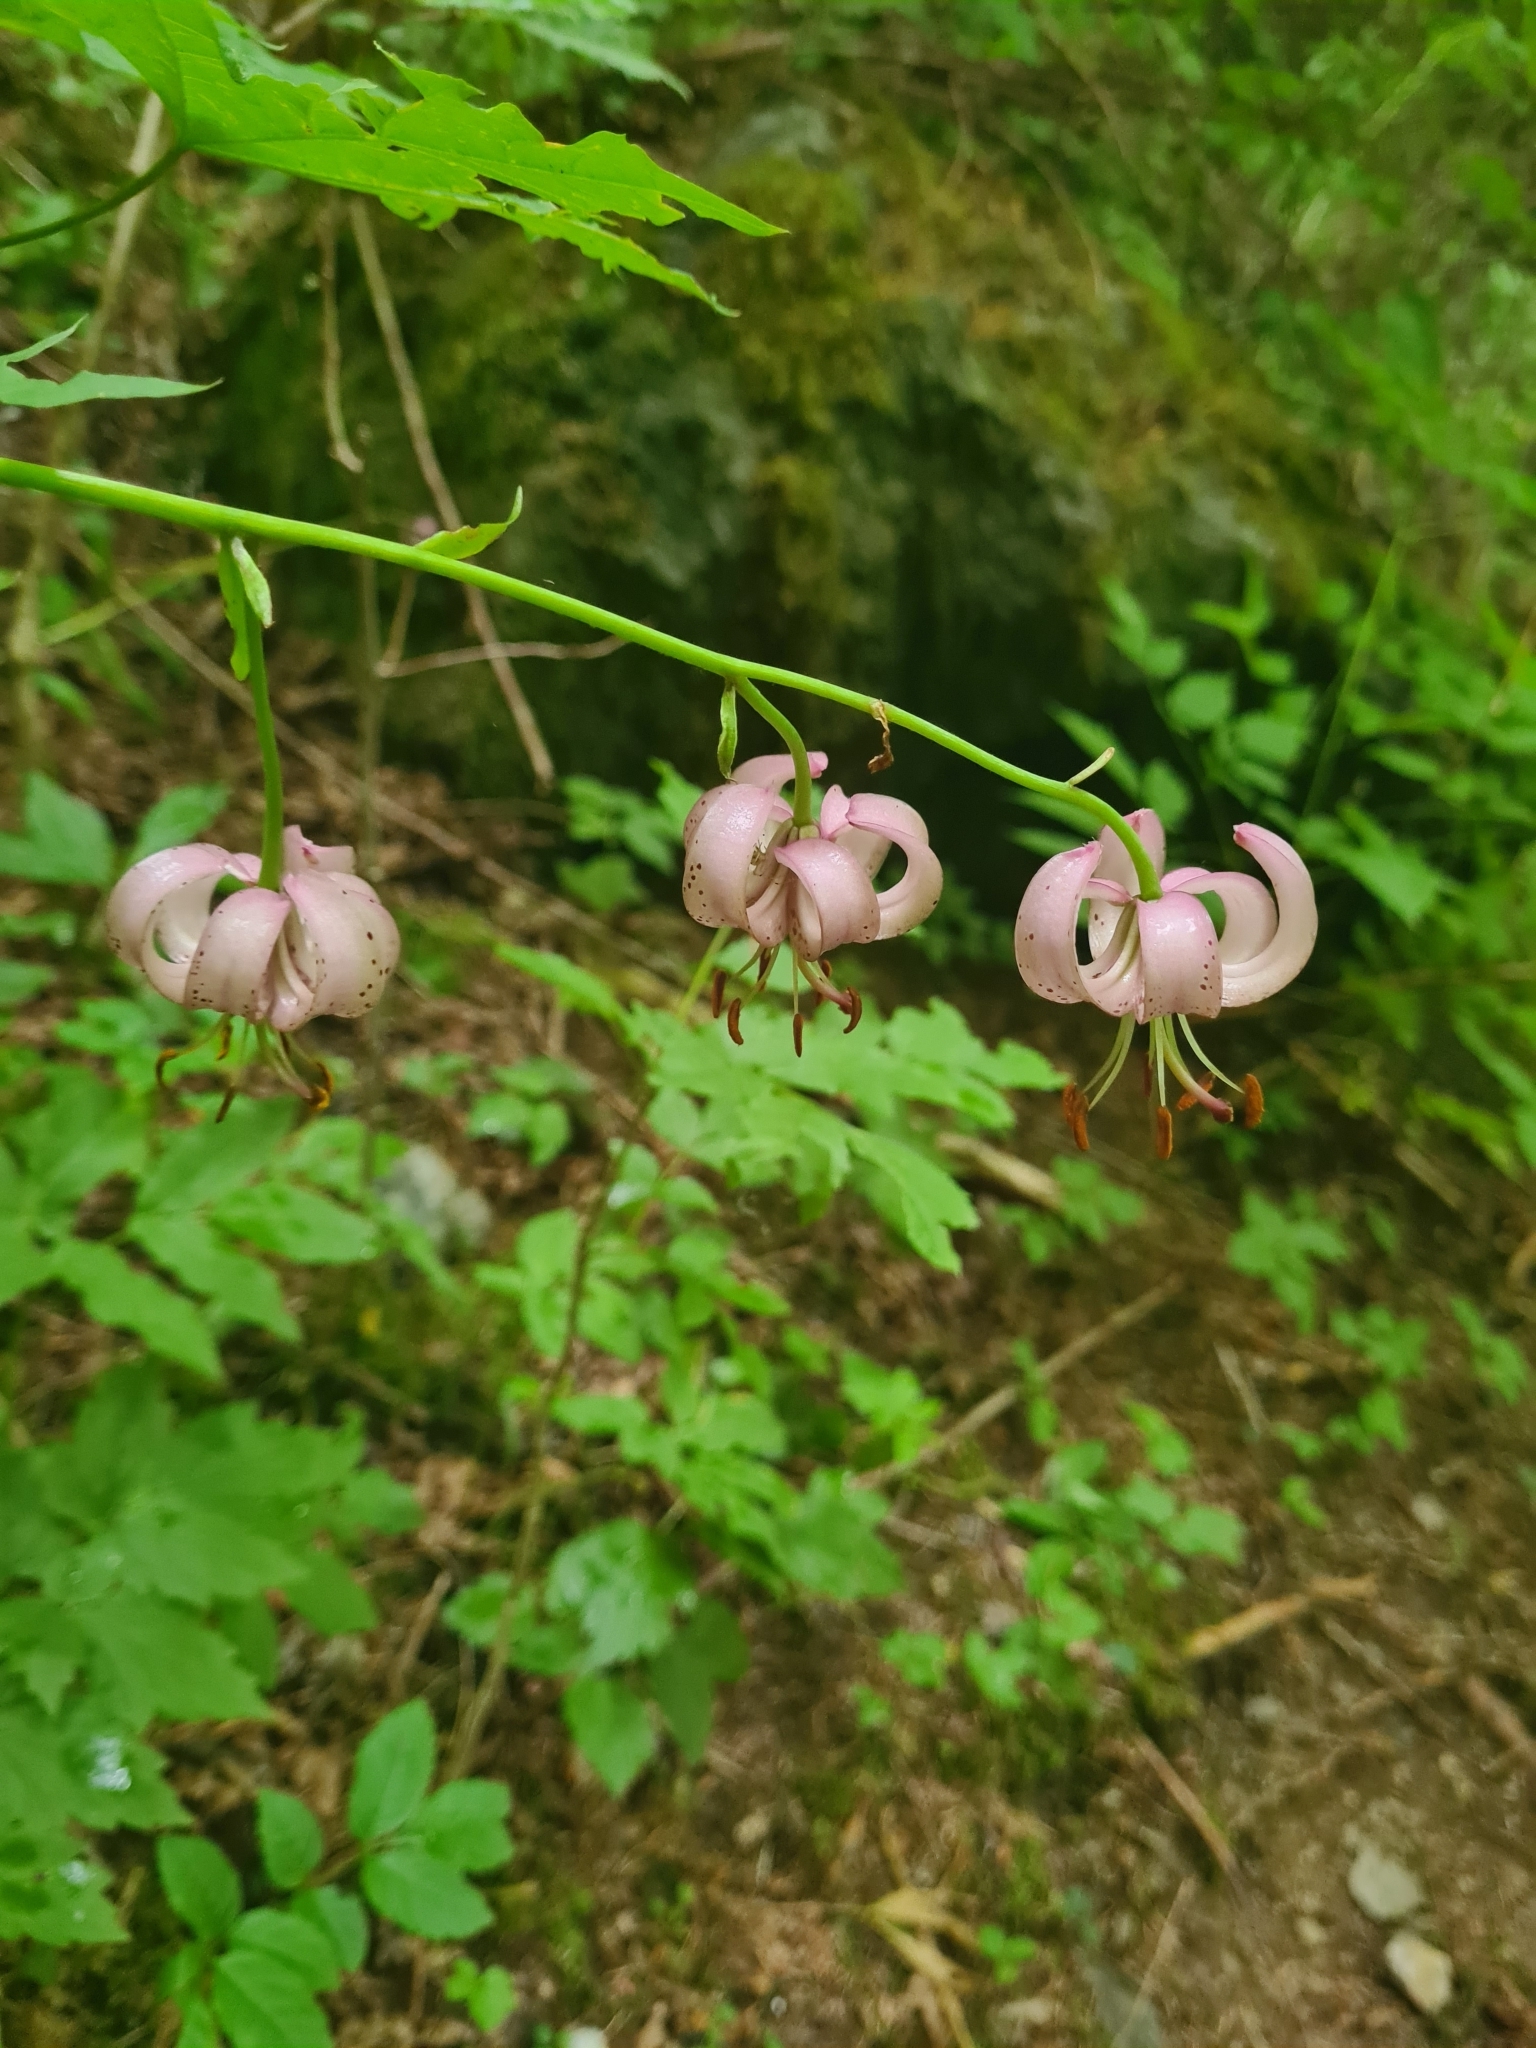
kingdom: Plantae
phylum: Tracheophyta
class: Liliopsida
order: Liliales
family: Liliaceae
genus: Lilium
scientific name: Lilium martagon
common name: Martagon lily
